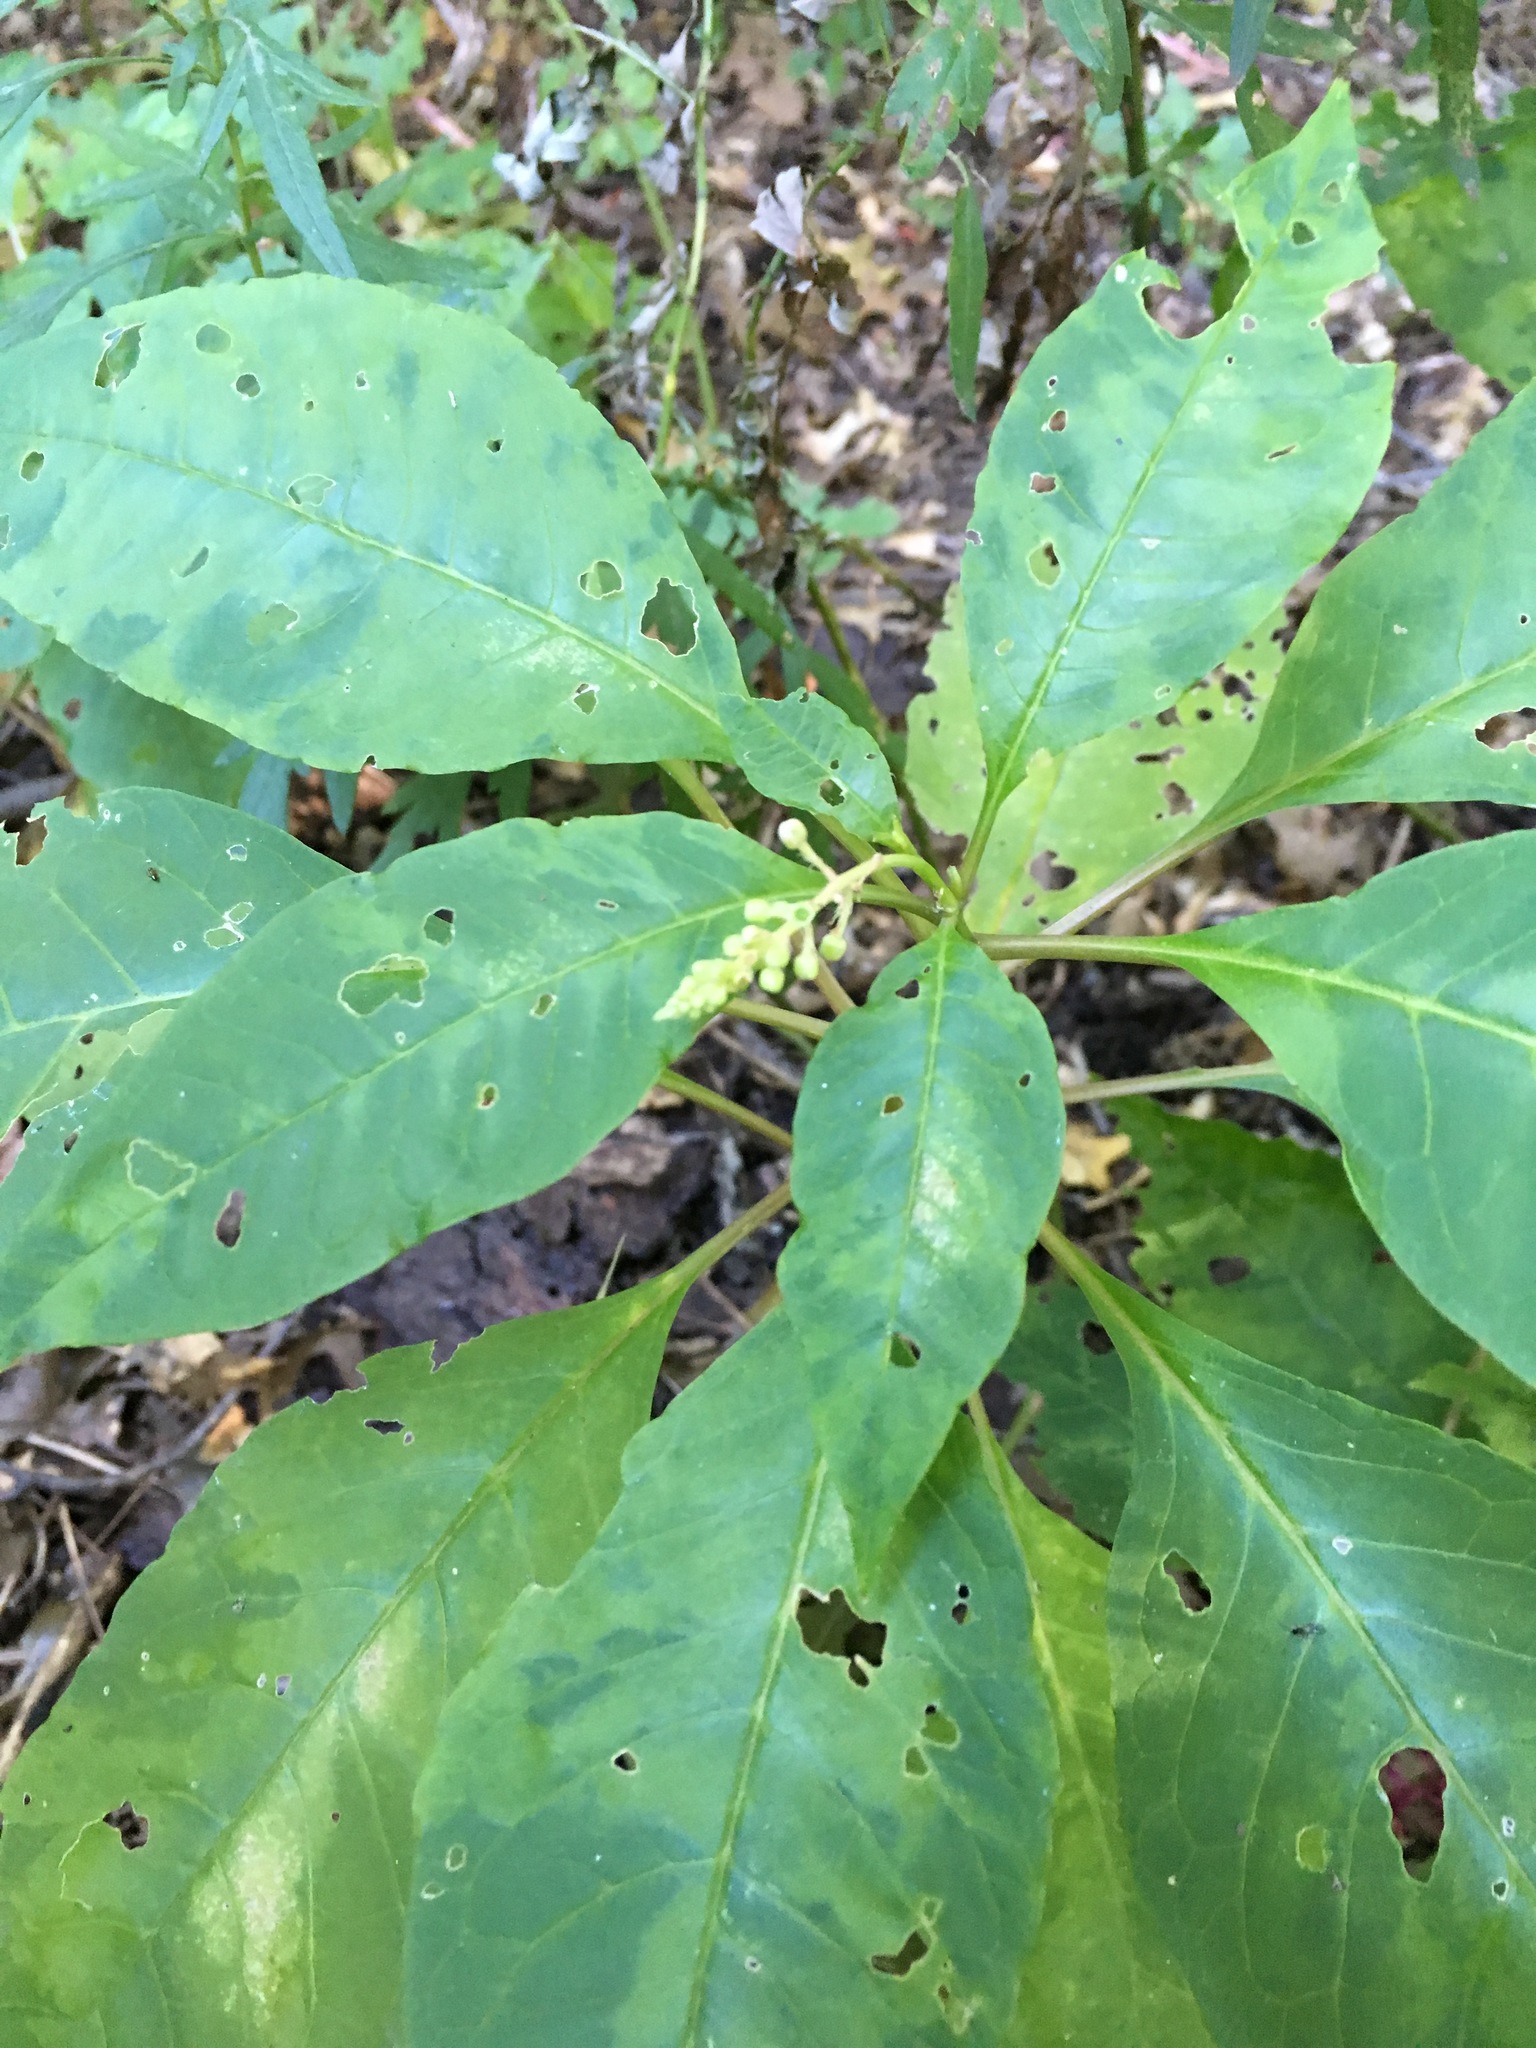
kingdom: Plantae
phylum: Tracheophyta
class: Magnoliopsida
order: Caryophyllales
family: Phytolaccaceae
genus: Phytolacca
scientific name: Phytolacca americana
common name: American pokeweed
